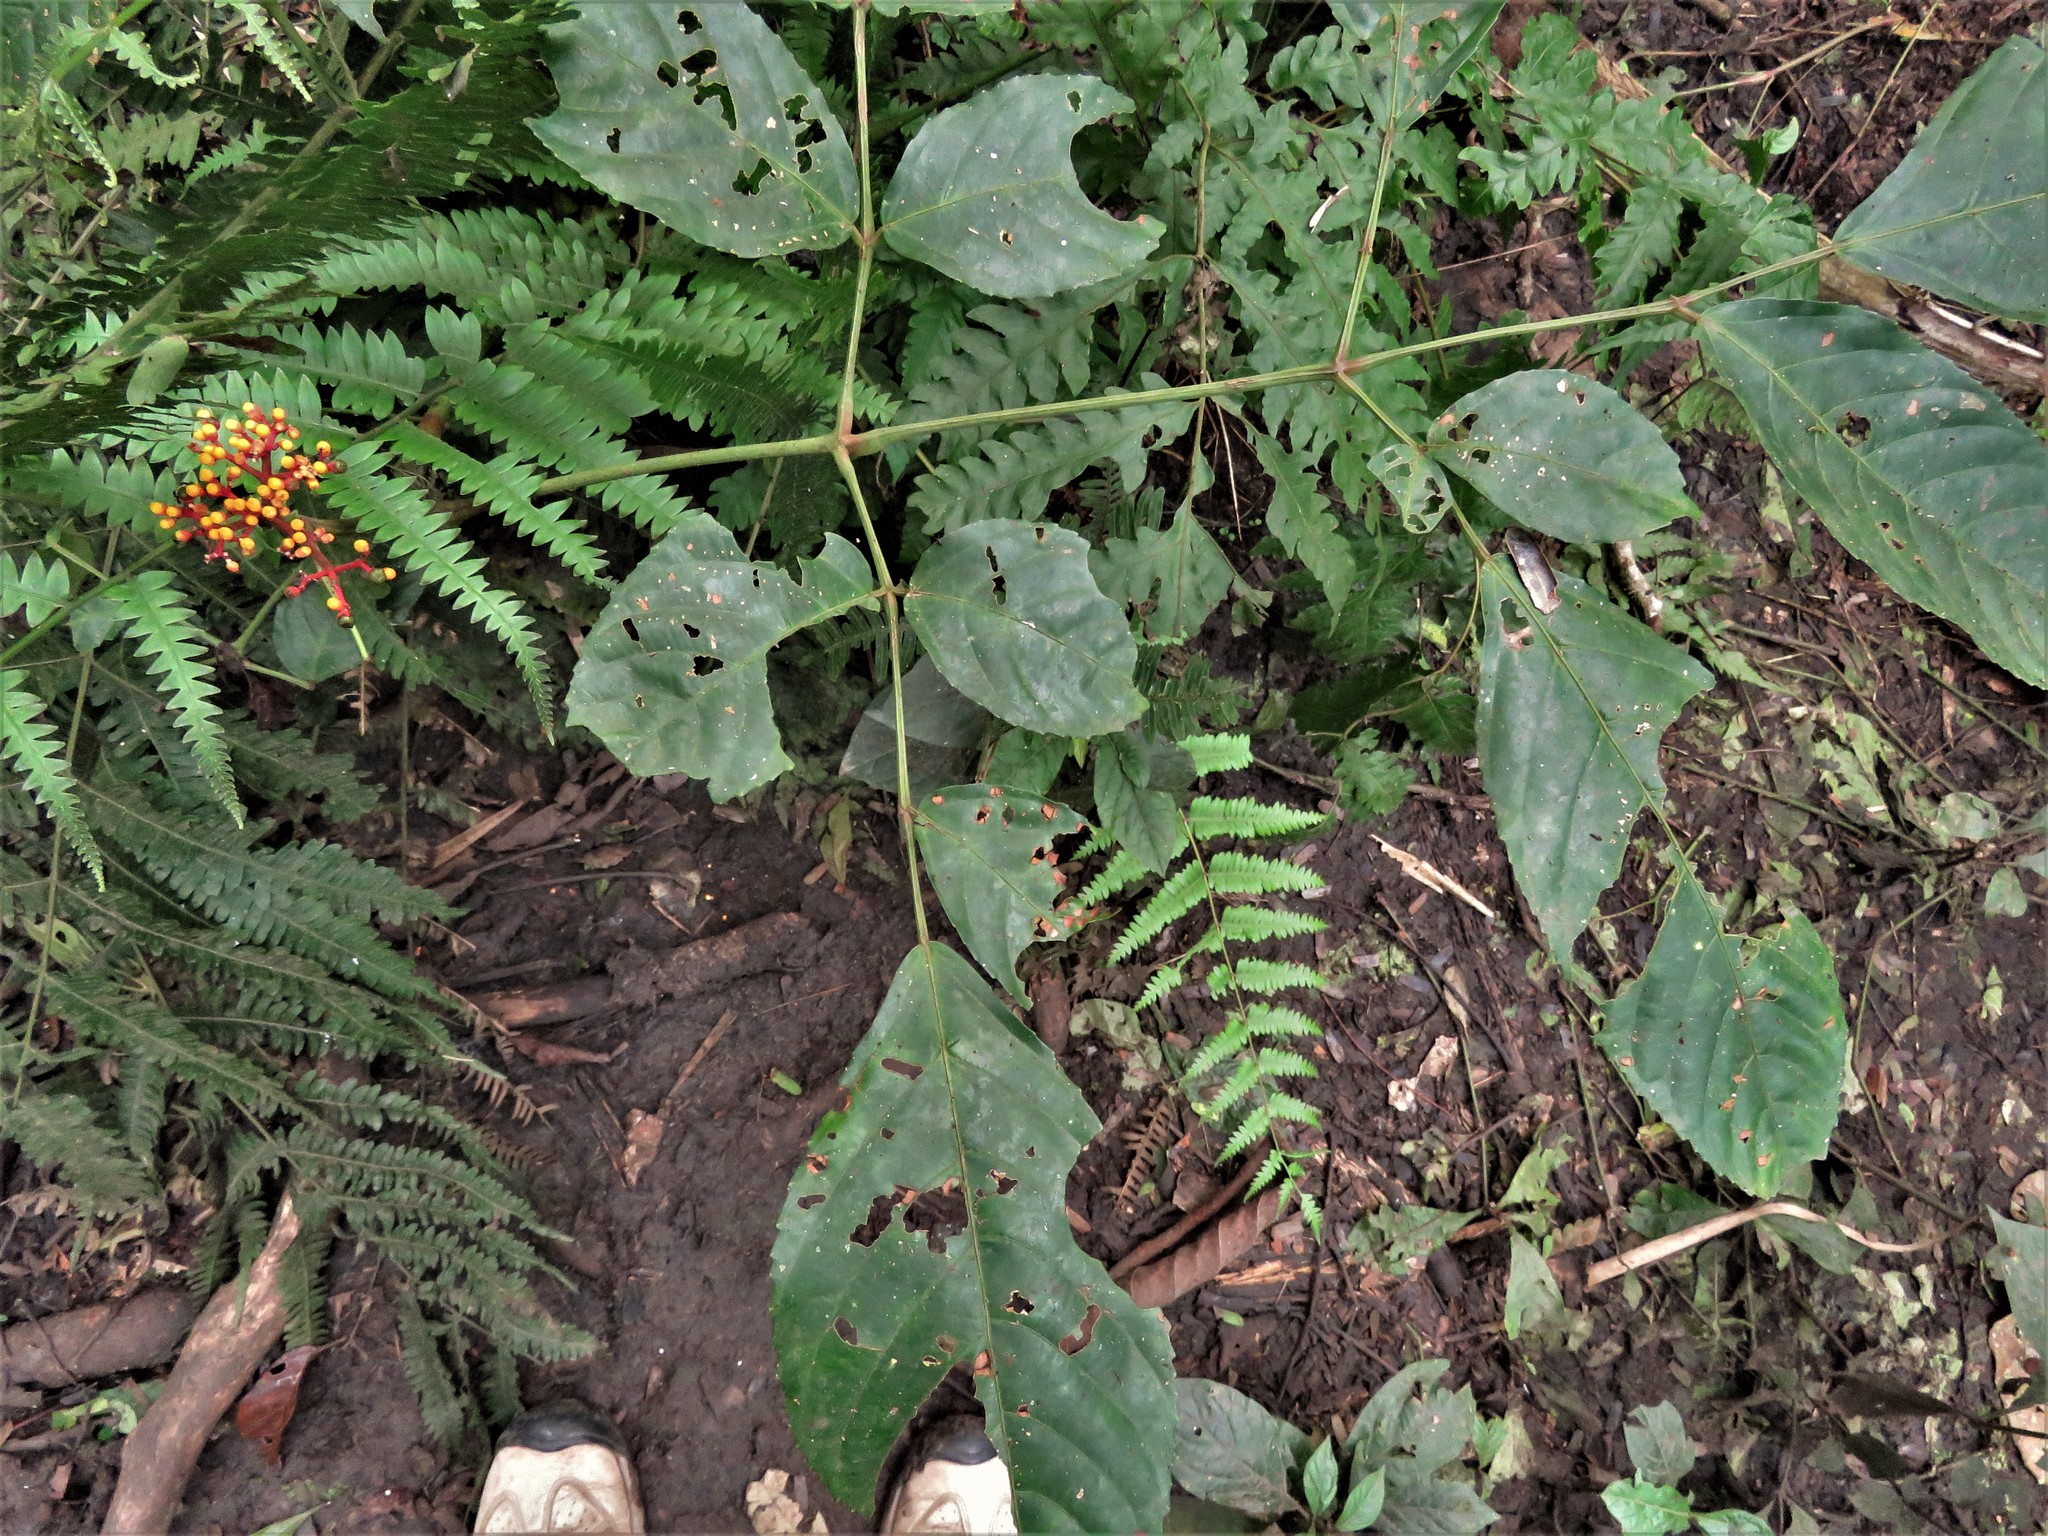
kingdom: Plantae
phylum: Tracheophyta
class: Magnoliopsida
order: Vitales
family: Vitaceae
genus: Leea
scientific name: Leea guineensis
